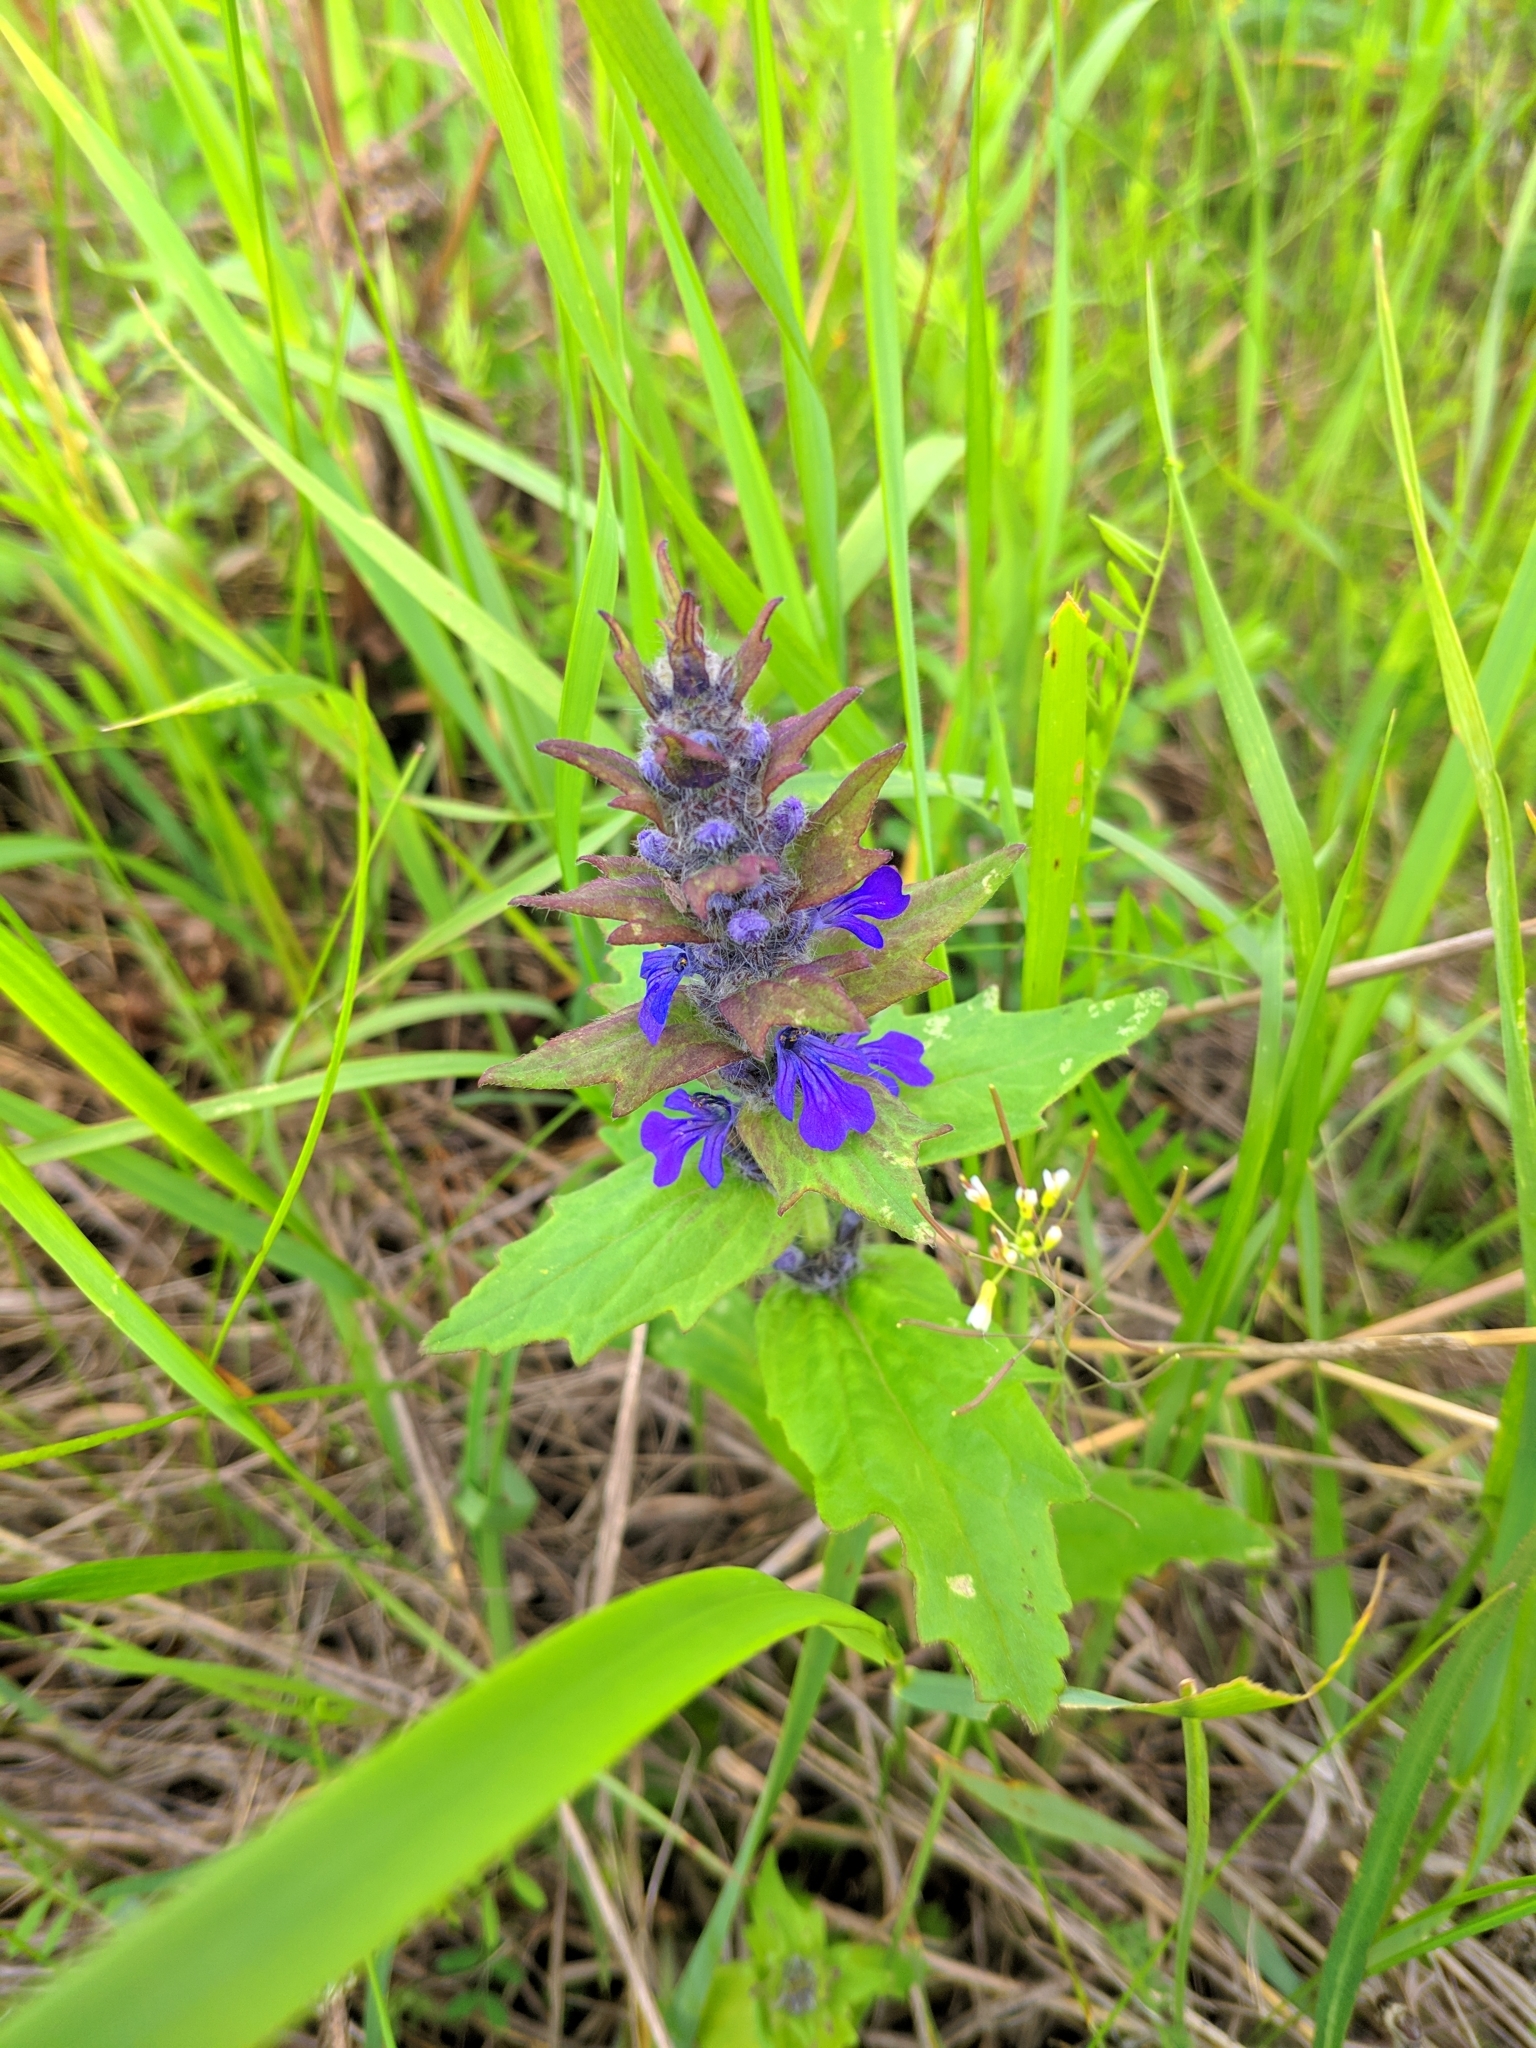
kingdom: Plantae
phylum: Tracheophyta
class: Magnoliopsida
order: Lamiales
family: Lamiaceae
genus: Ajuga
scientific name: Ajuga genevensis
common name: Blue bugle
